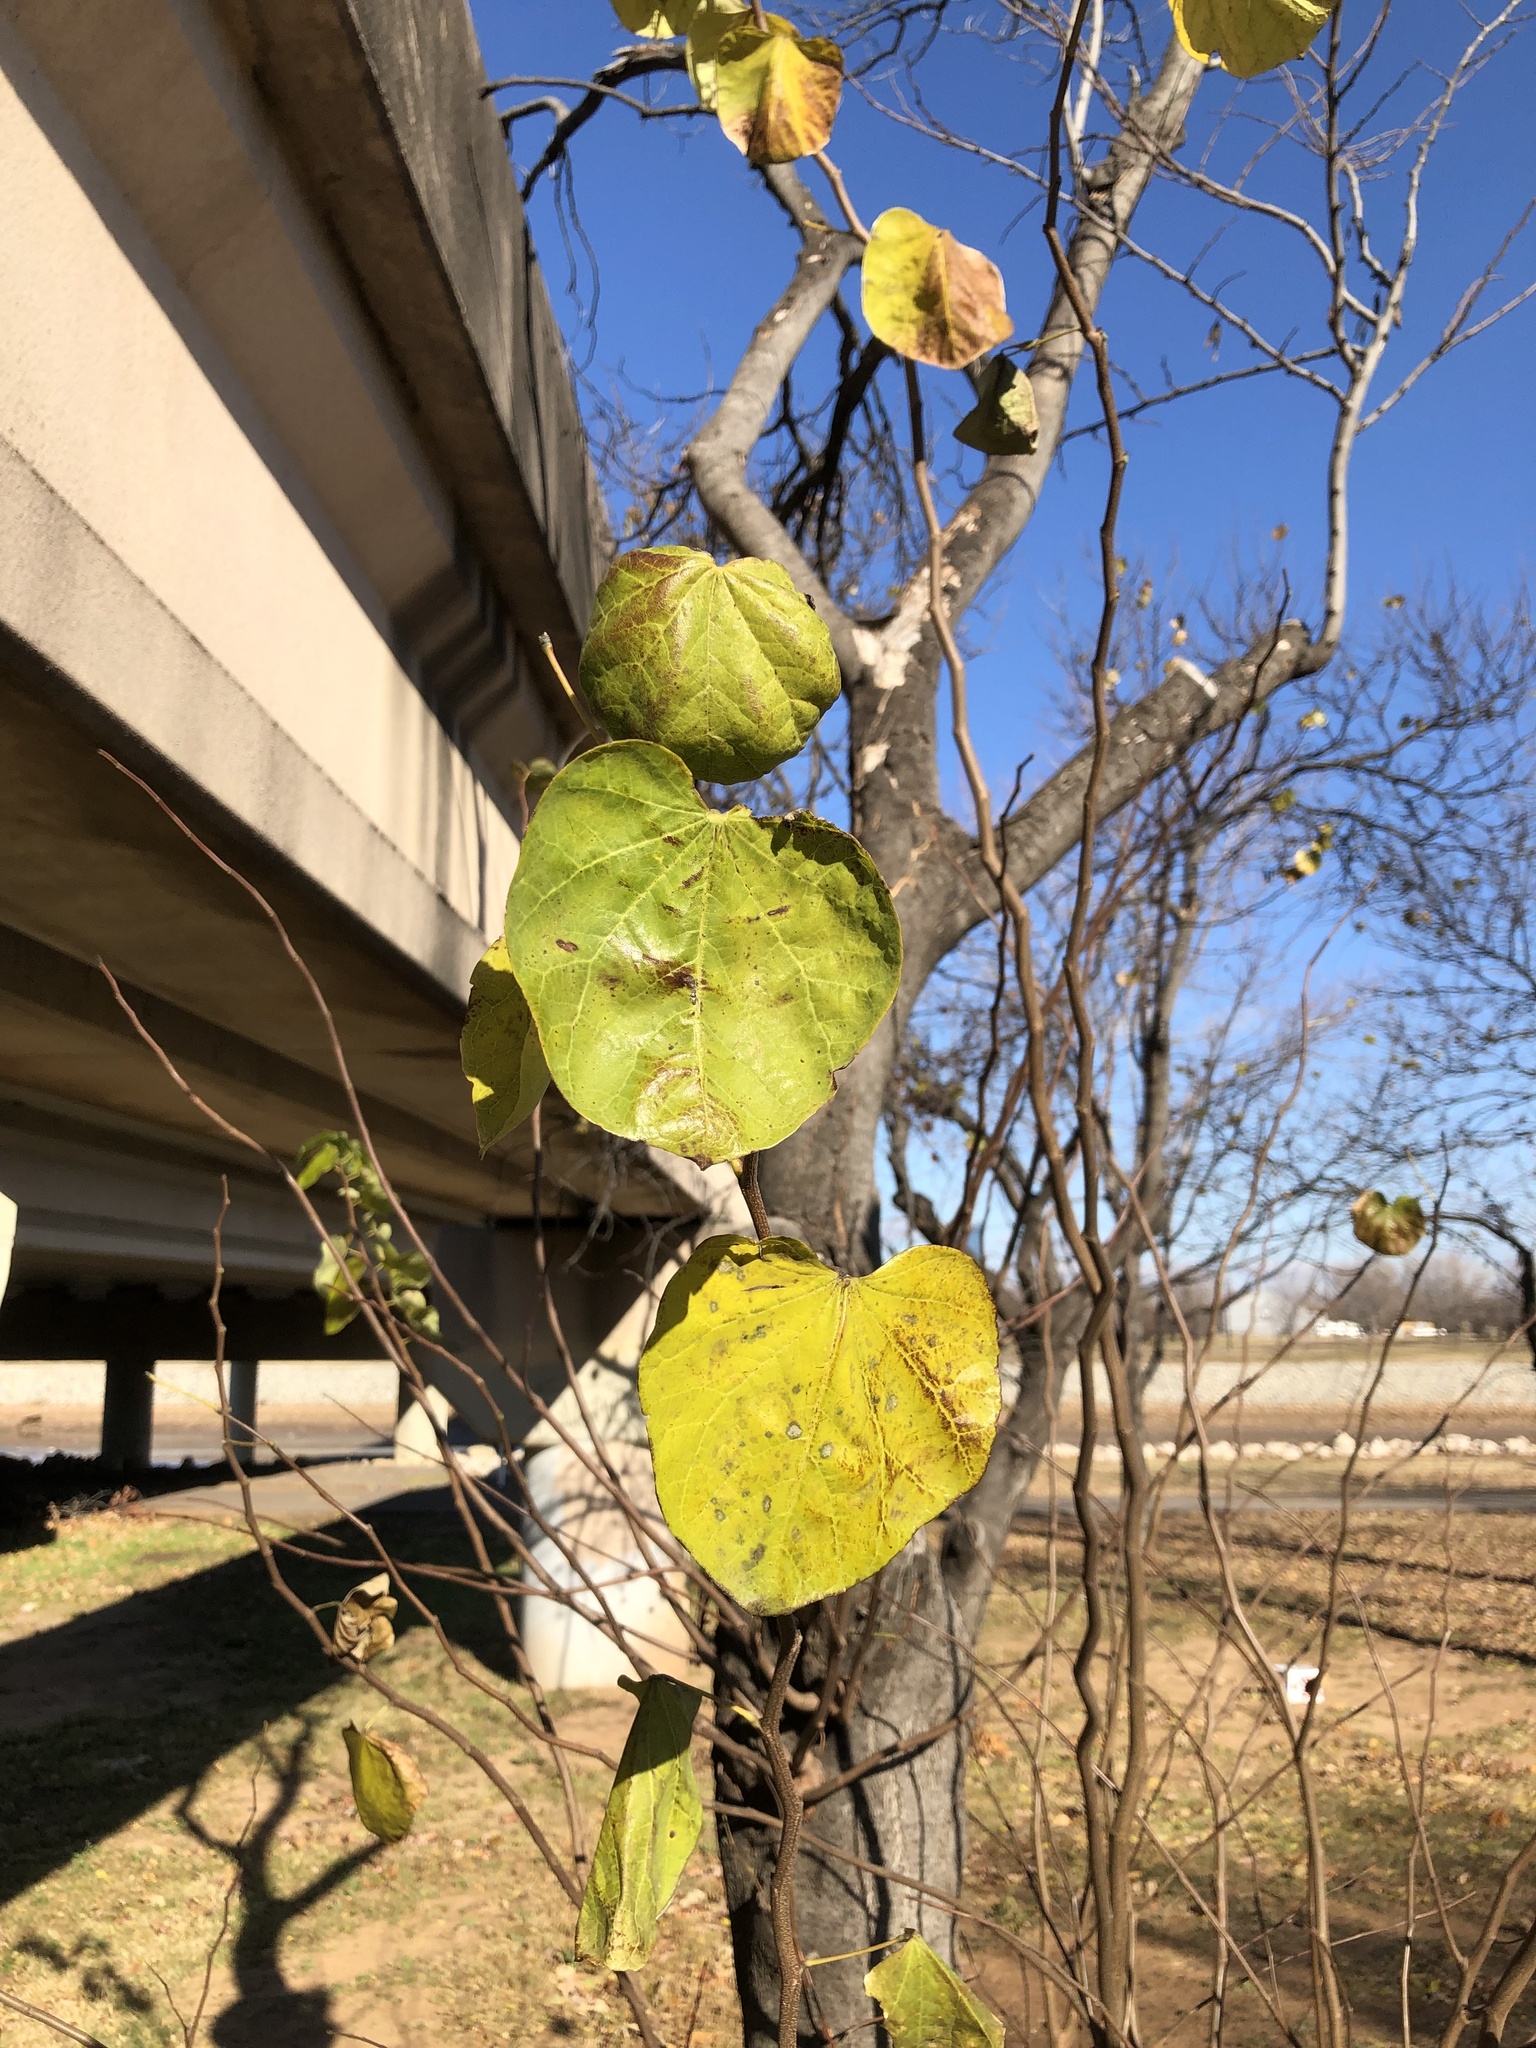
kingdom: Plantae
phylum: Tracheophyta
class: Magnoliopsida
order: Fabales
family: Fabaceae
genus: Cercis
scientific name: Cercis canadensis
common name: Eastern redbud
